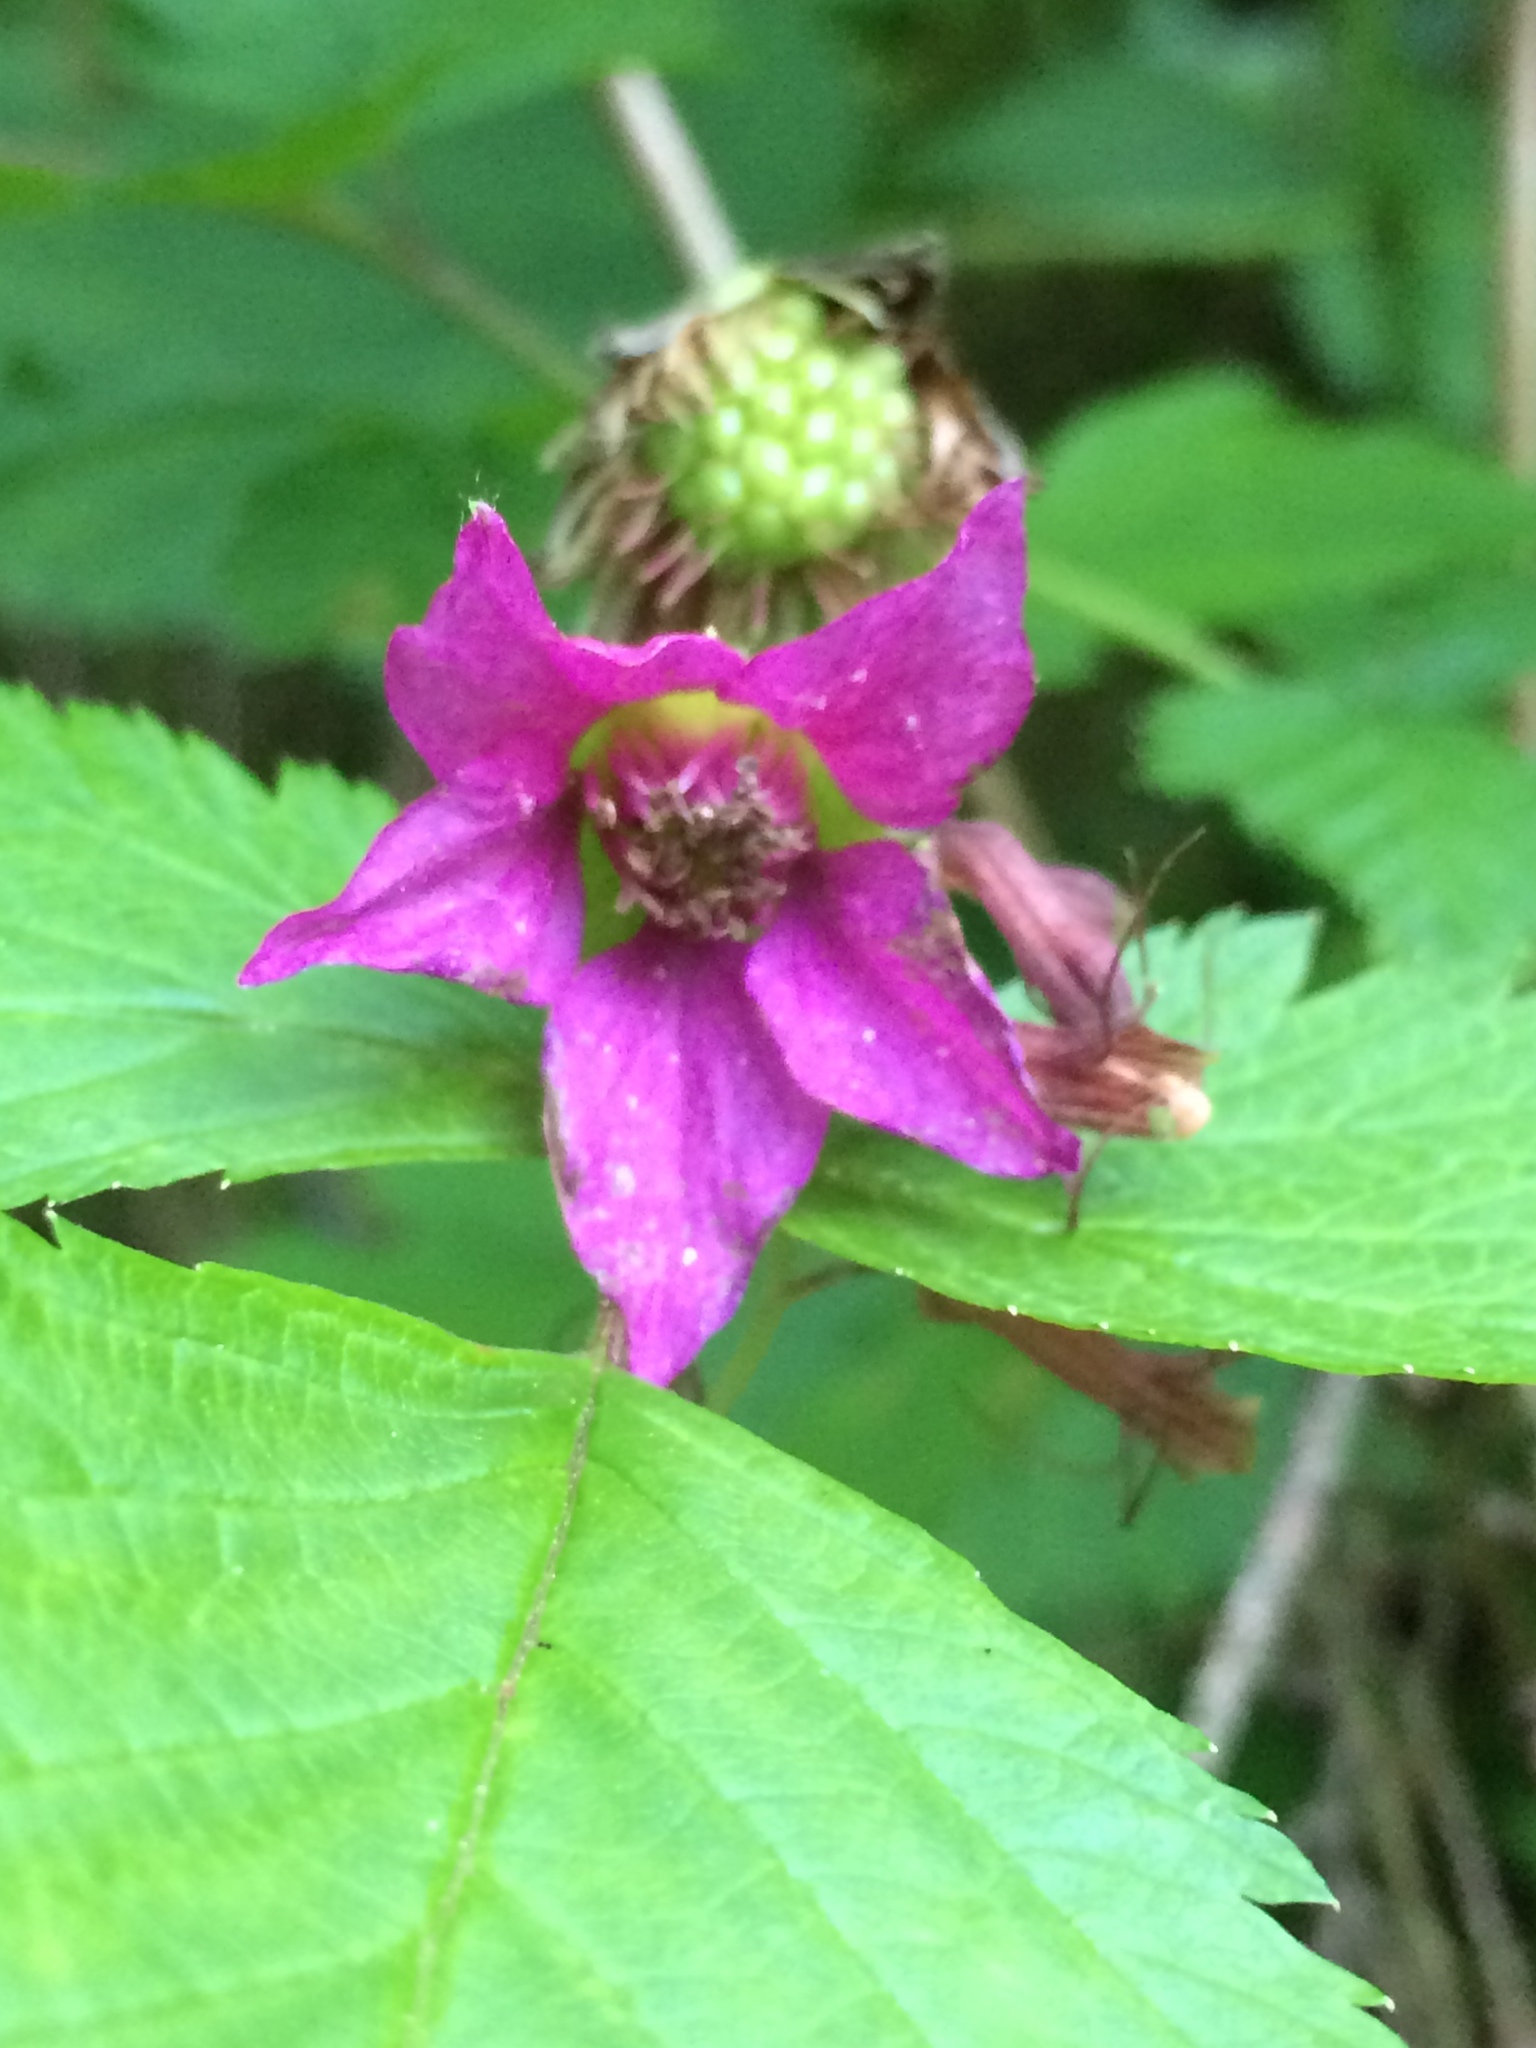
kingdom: Plantae
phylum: Tracheophyta
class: Magnoliopsida
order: Rosales
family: Rosaceae
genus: Rubus
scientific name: Rubus spectabilis
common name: Salmonberry
